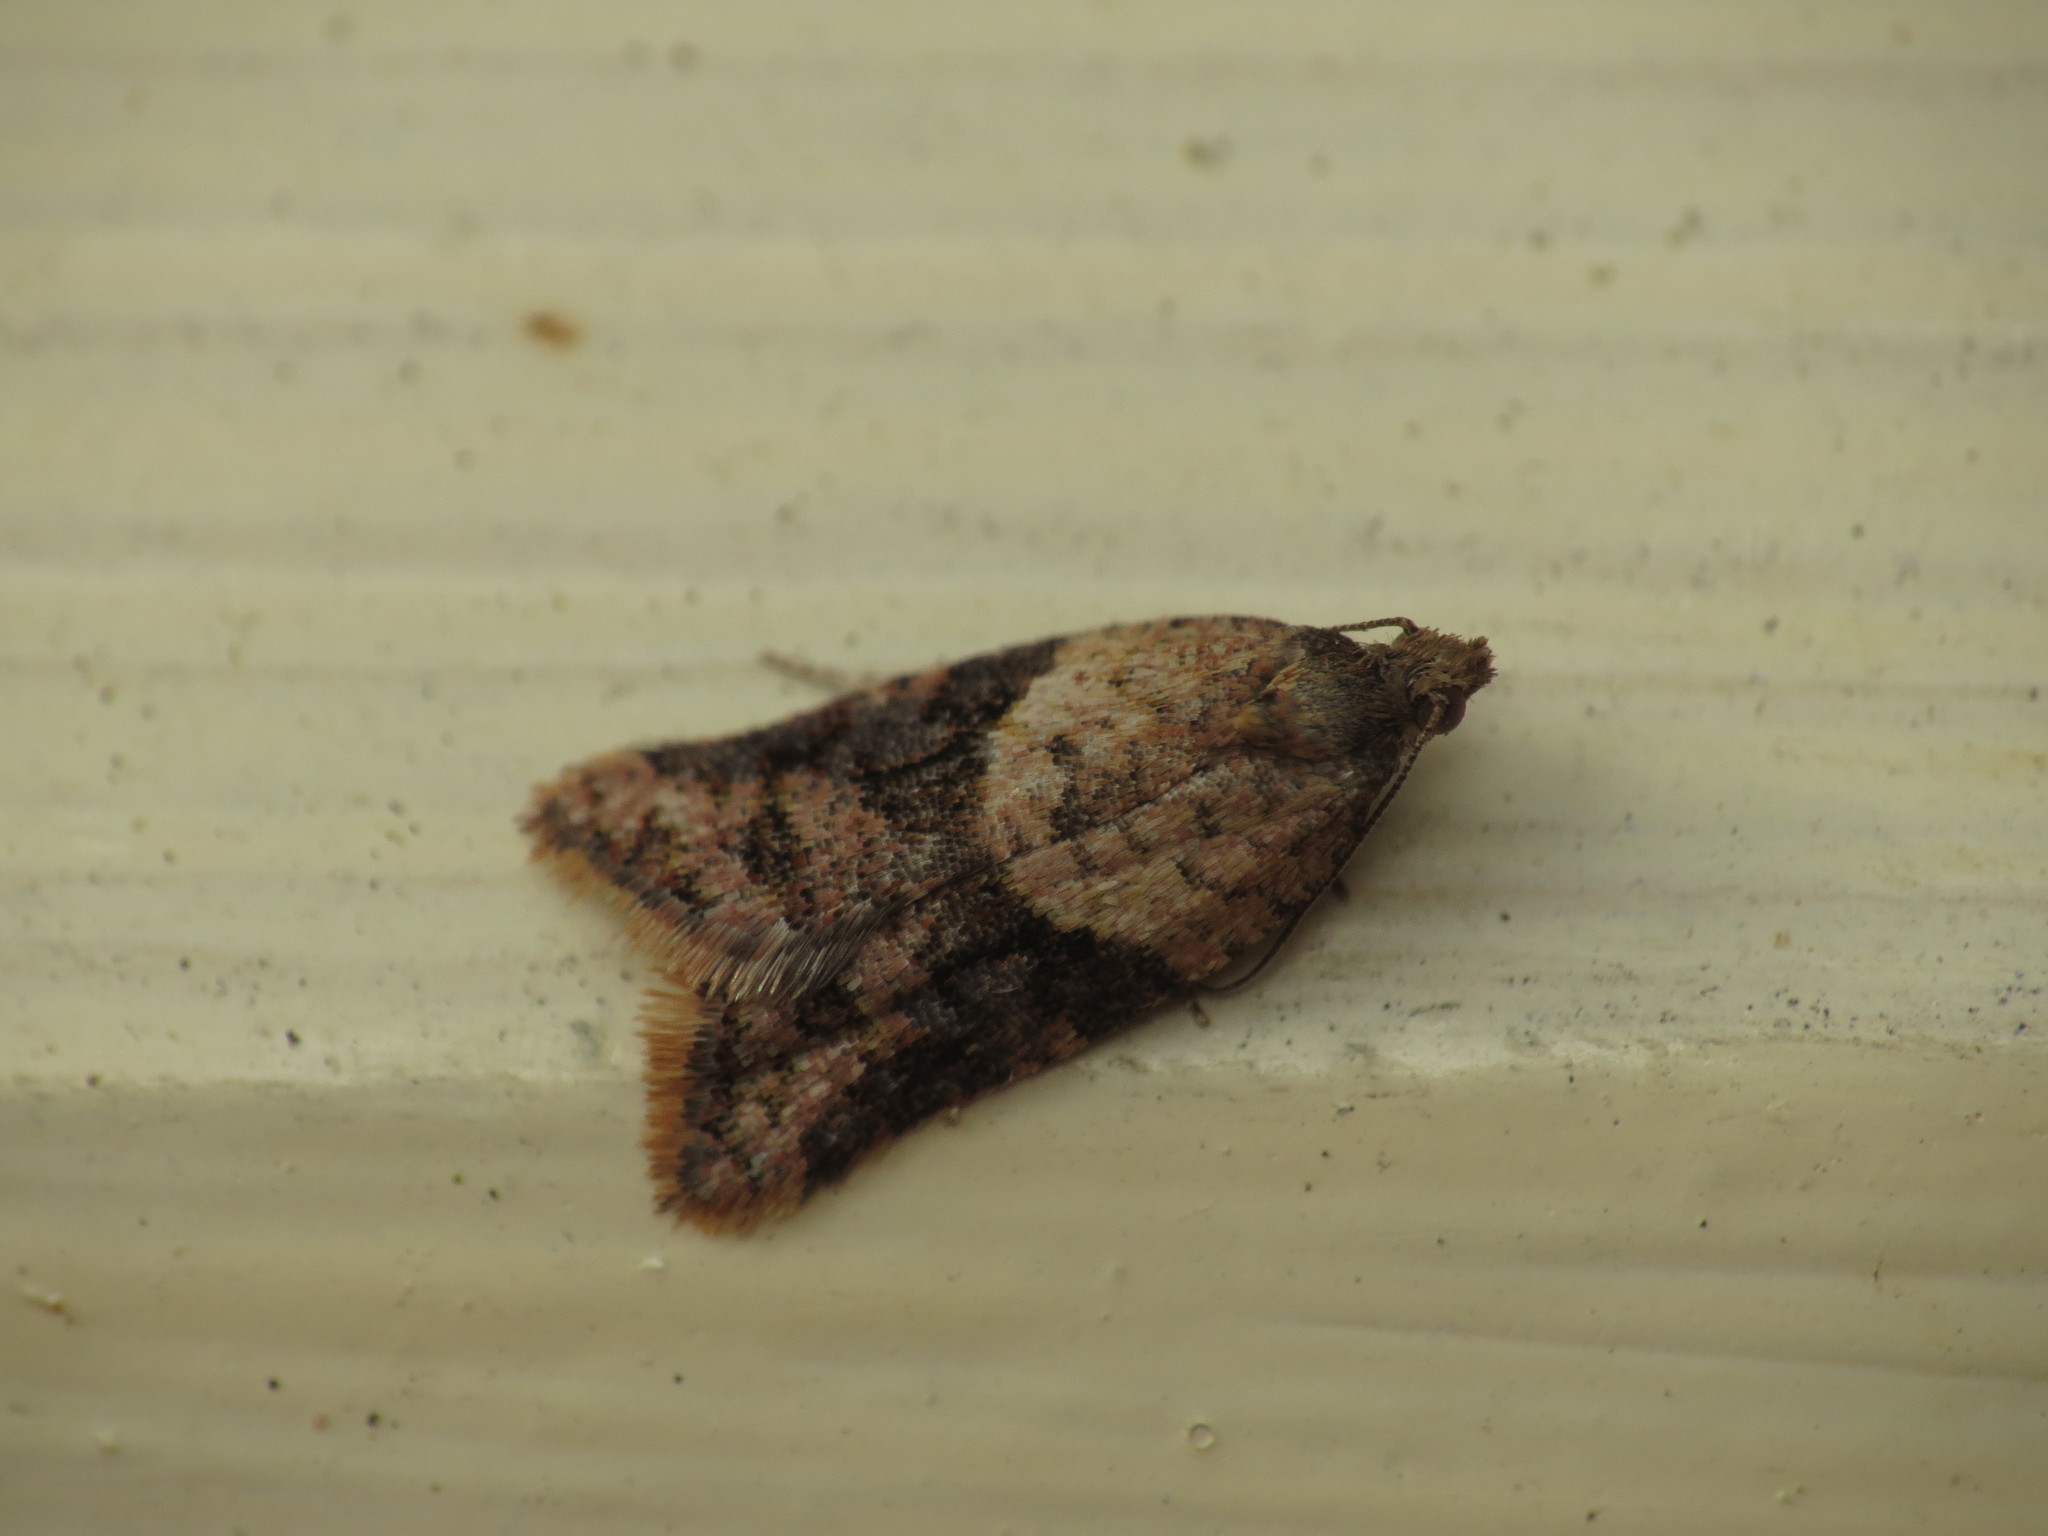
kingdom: Animalia
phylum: Arthropoda
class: Insecta
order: Lepidoptera
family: Tortricidae
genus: Epiphyas
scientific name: Epiphyas xylodes
